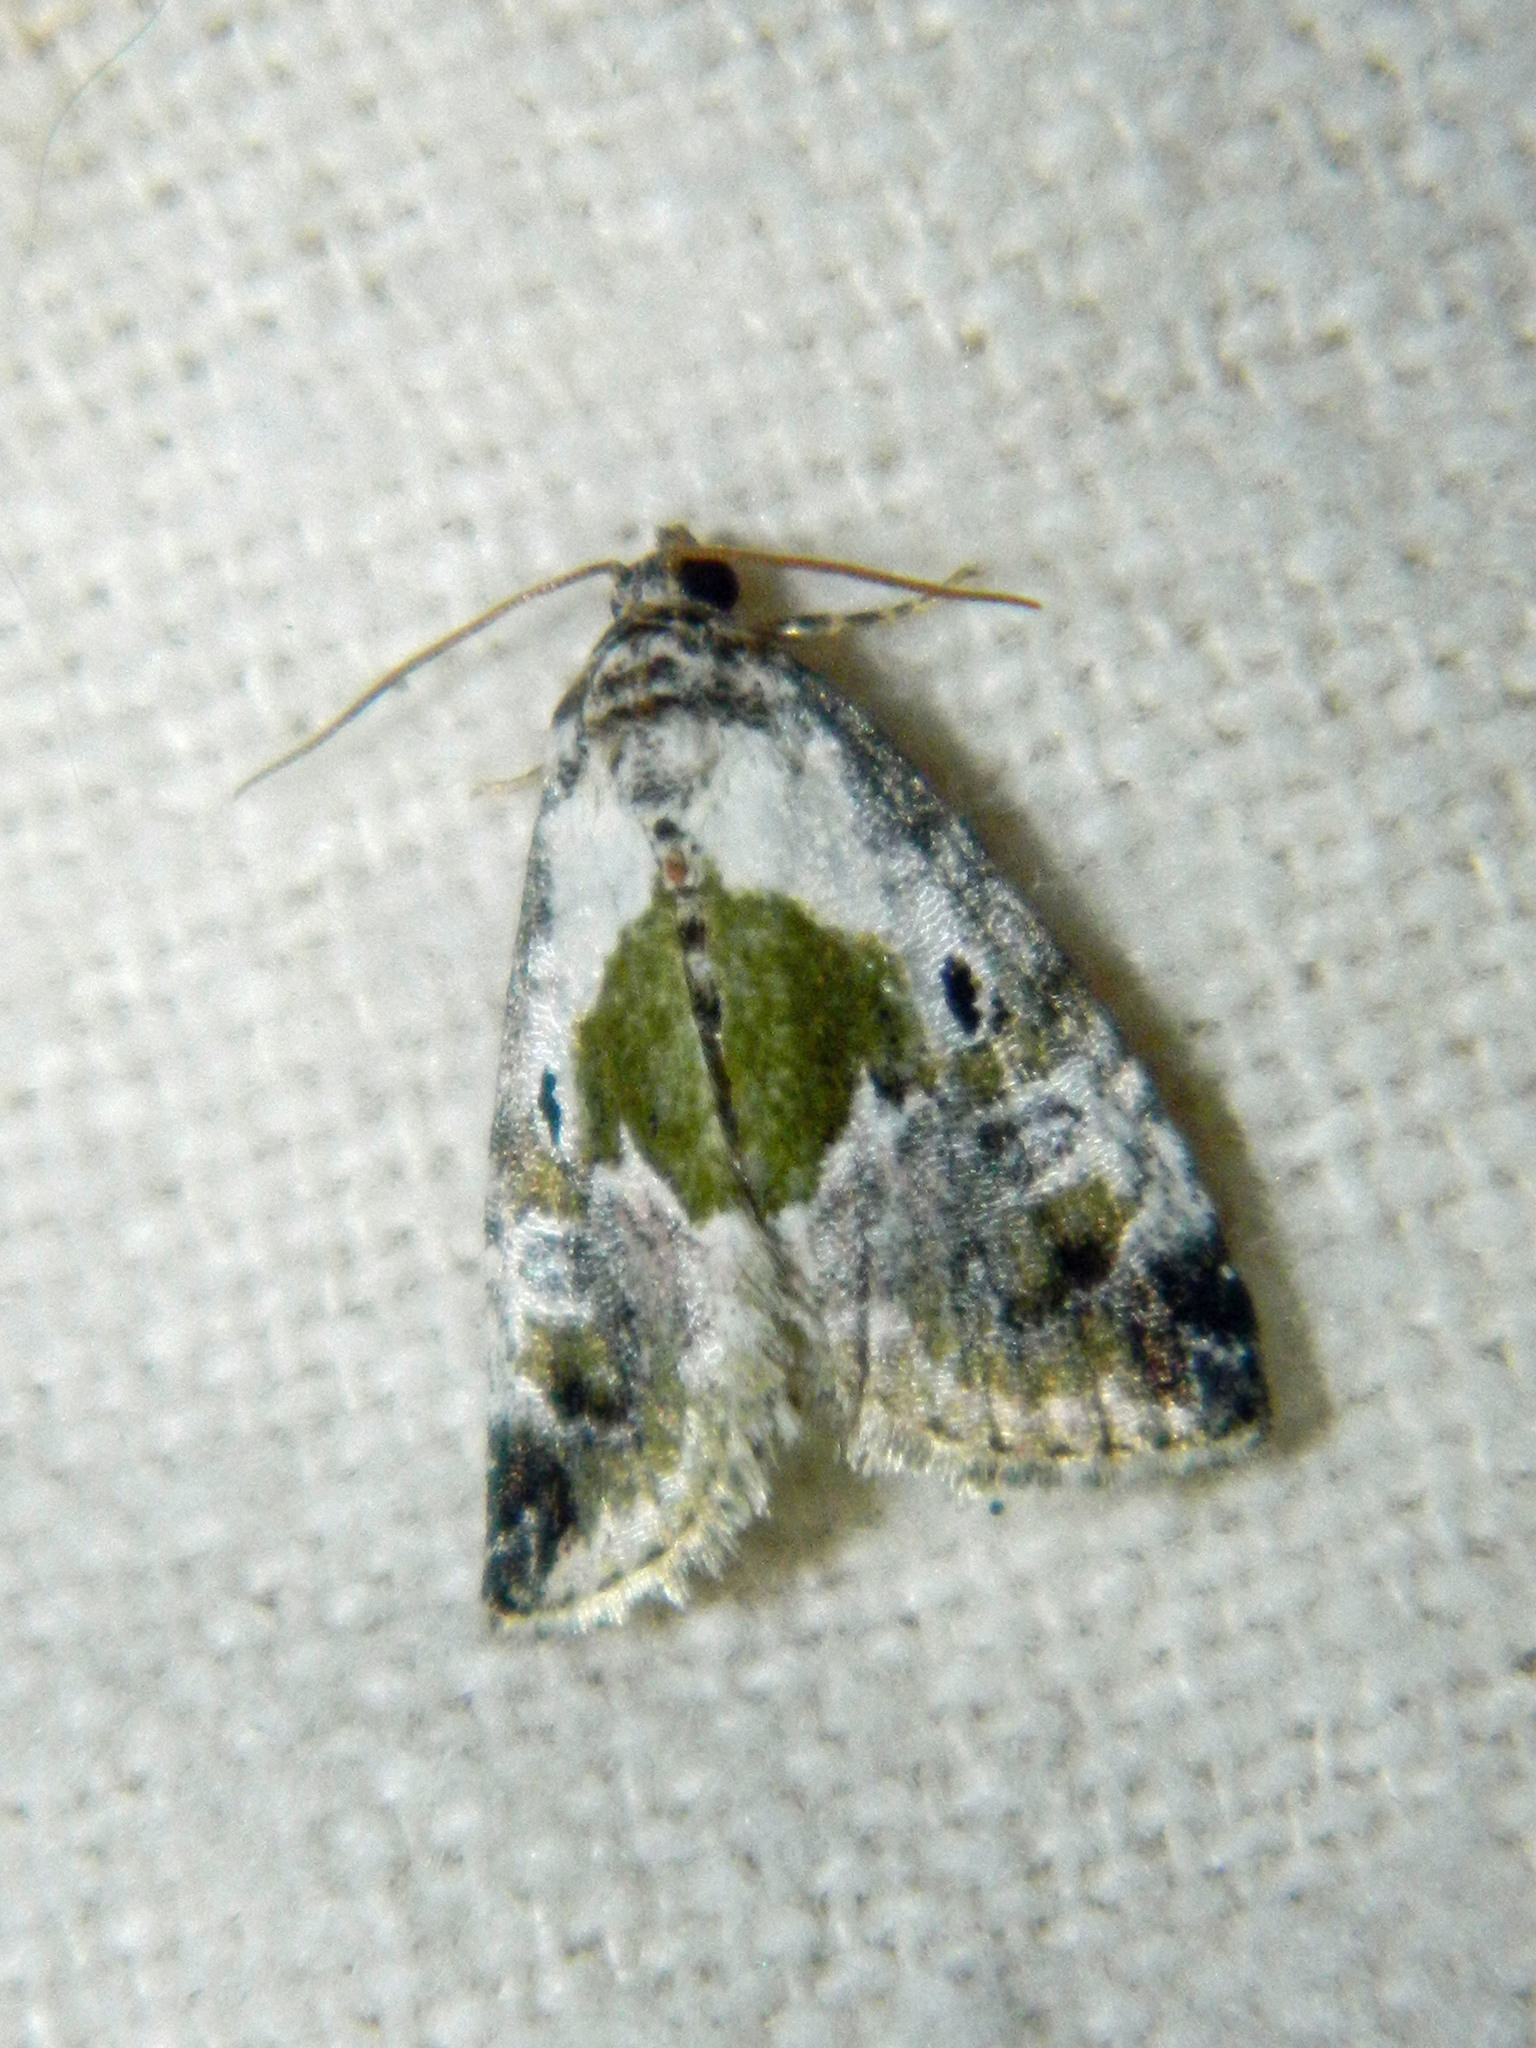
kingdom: Animalia
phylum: Arthropoda
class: Insecta
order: Lepidoptera
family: Noctuidae
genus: Maliattha
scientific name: Maliattha synochitis
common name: Black-dotted glyph
